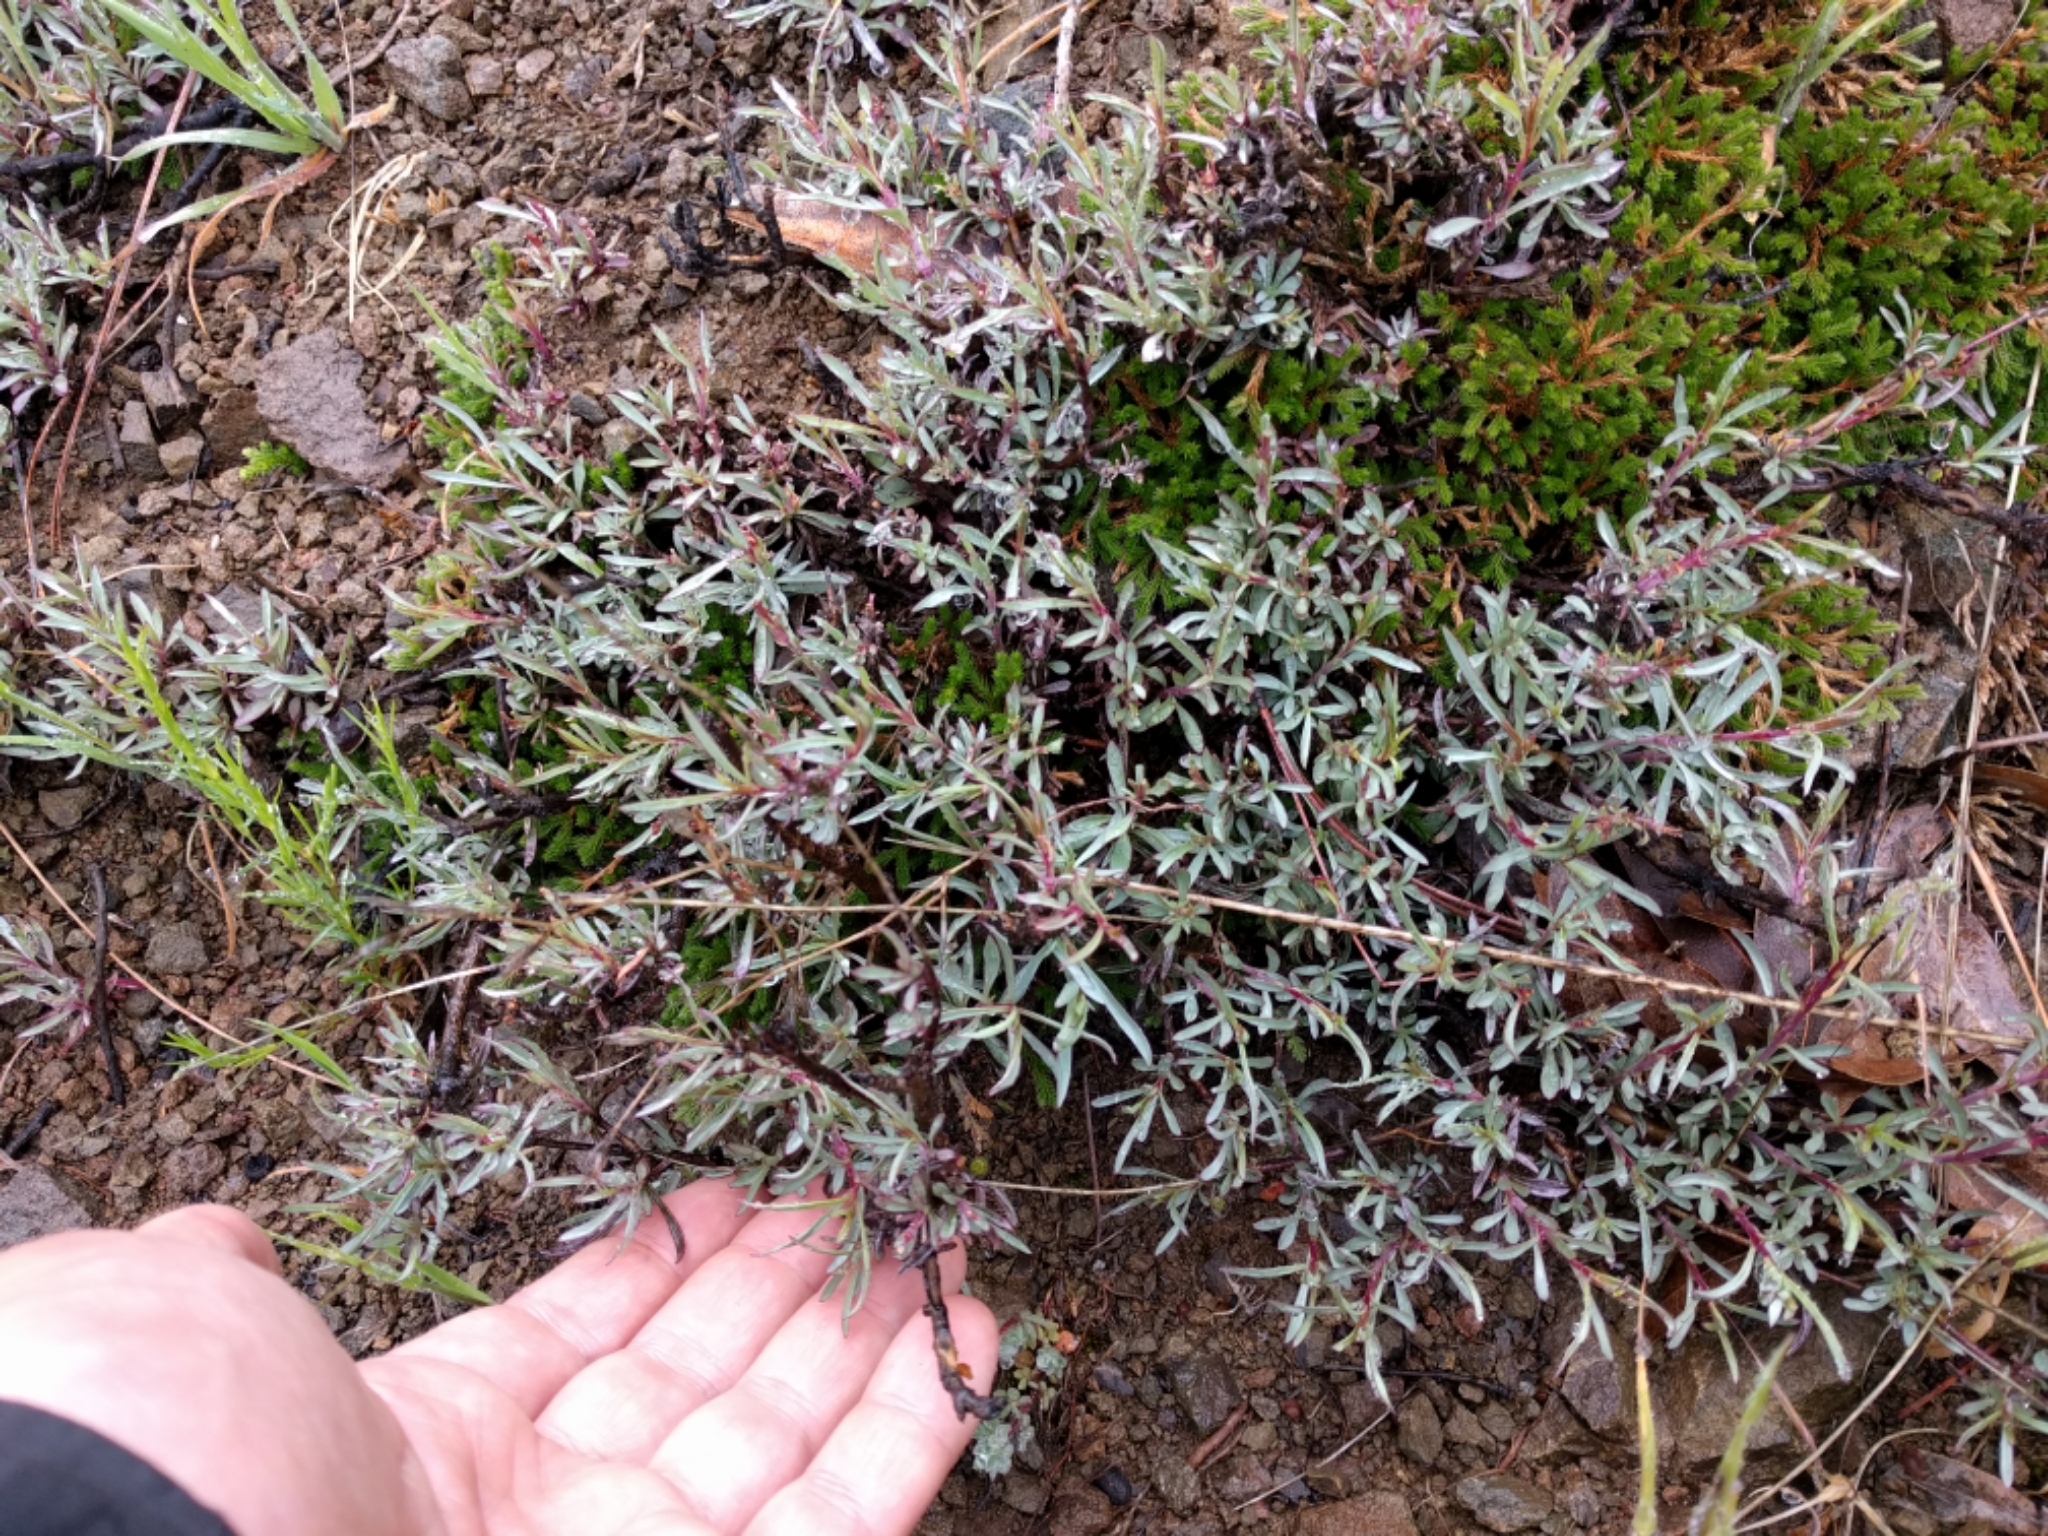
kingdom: Plantae
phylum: Tracheophyta
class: Magnoliopsida
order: Lamiales
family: Plantaginaceae
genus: Penstemon
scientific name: Penstemon heterophyllus
